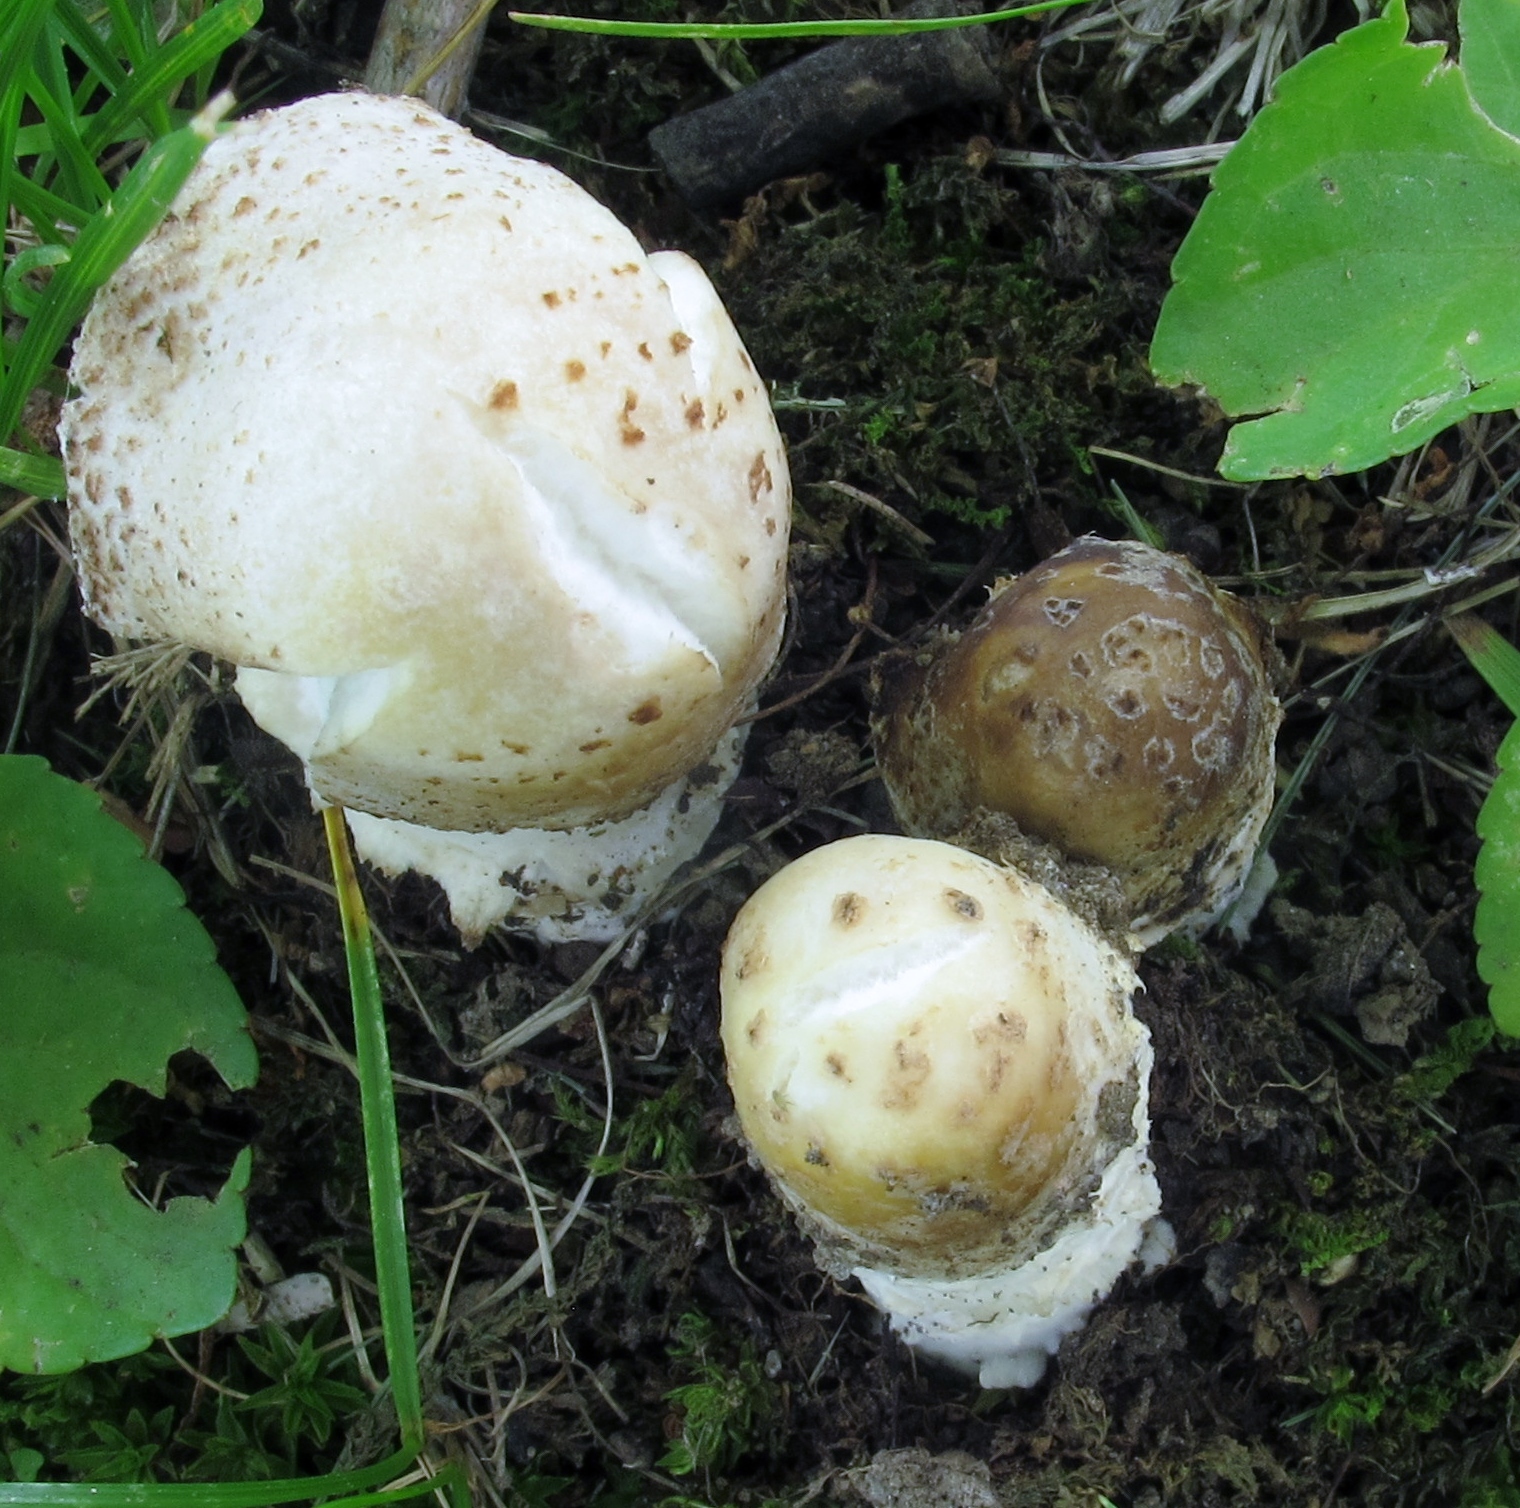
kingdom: Fungi
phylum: Ascomycota
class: Sordariomycetes
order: Hypocreales
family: Hypocreaceae
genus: Hypomyces
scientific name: Hypomyces hyalinus
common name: Amanita mold
